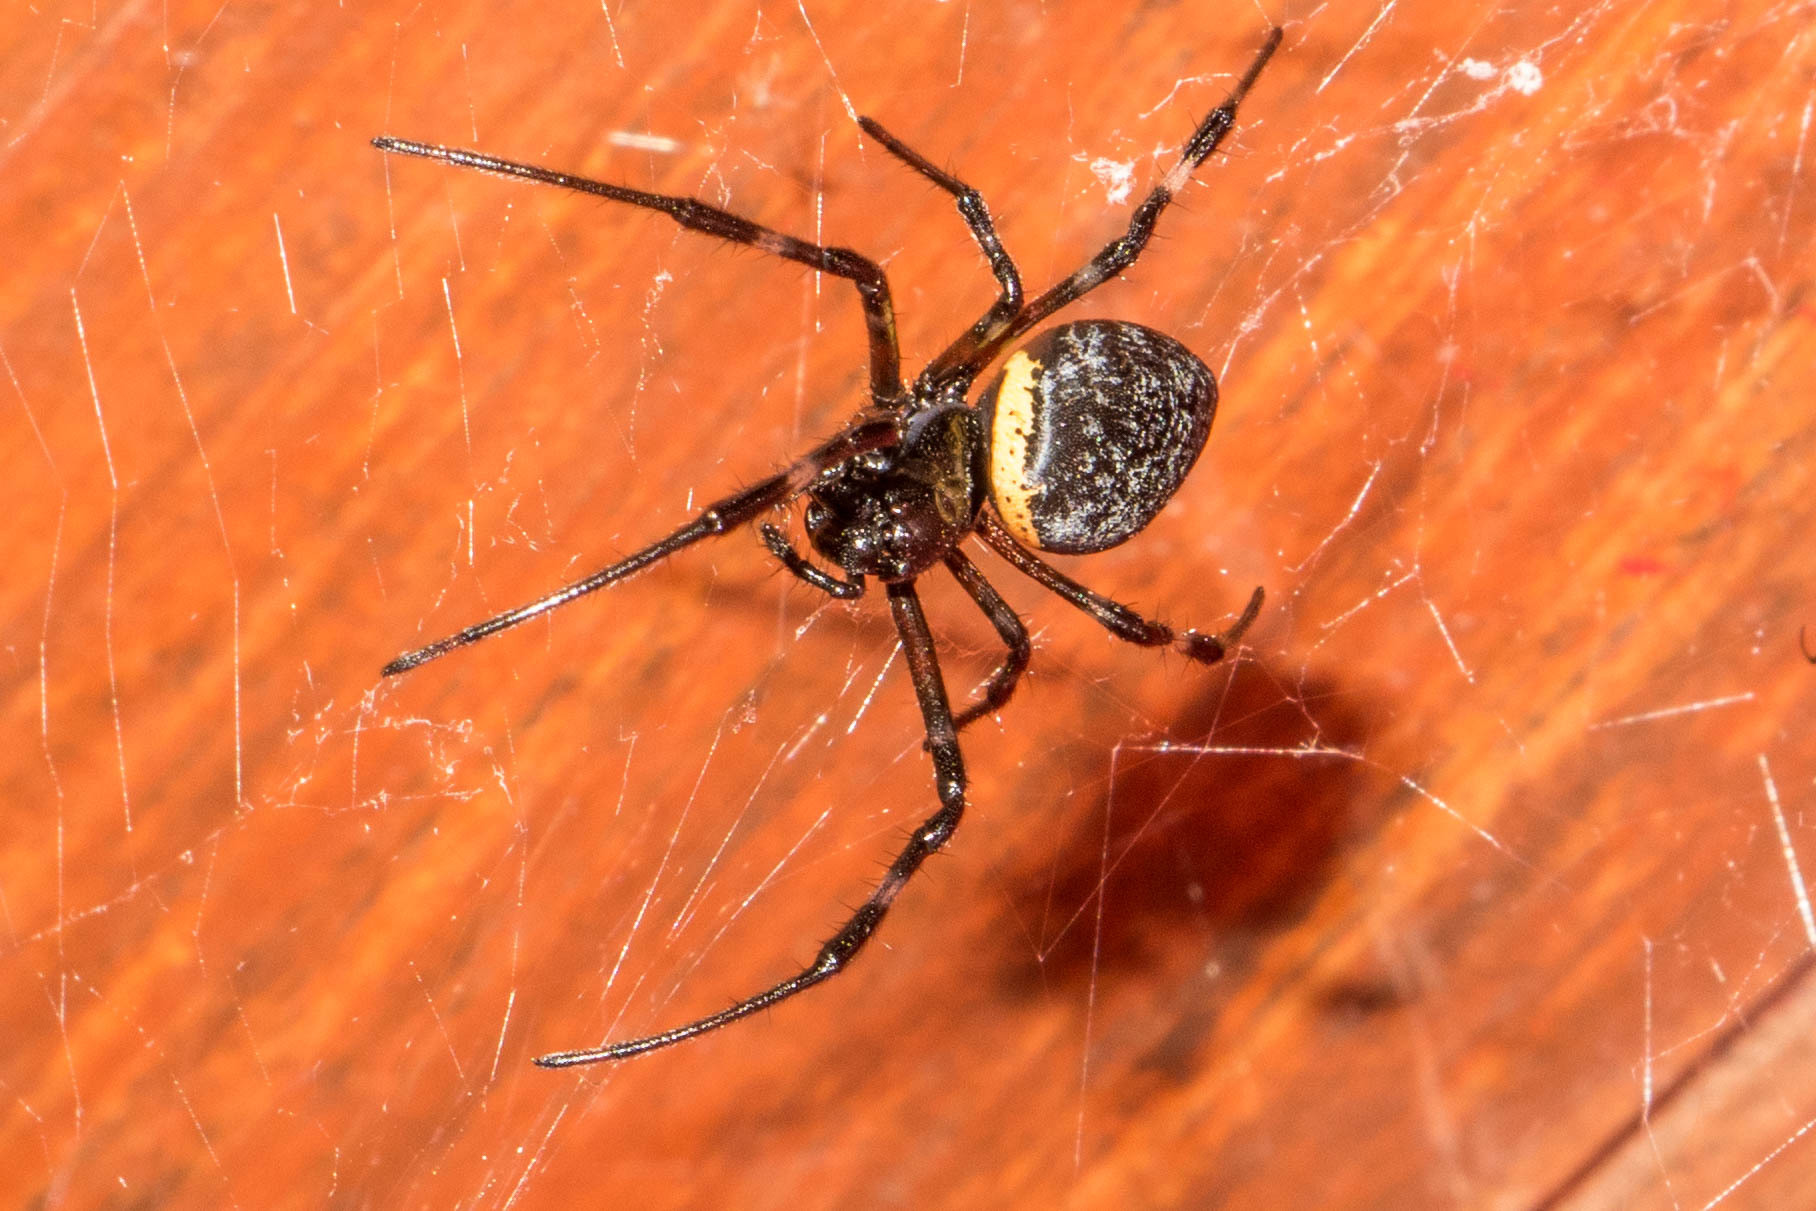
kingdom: Animalia
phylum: Arthropoda
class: Arachnida
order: Araneae
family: Araneidae
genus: Nephilingis
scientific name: Nephilingis cruentata
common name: African hermit spider
